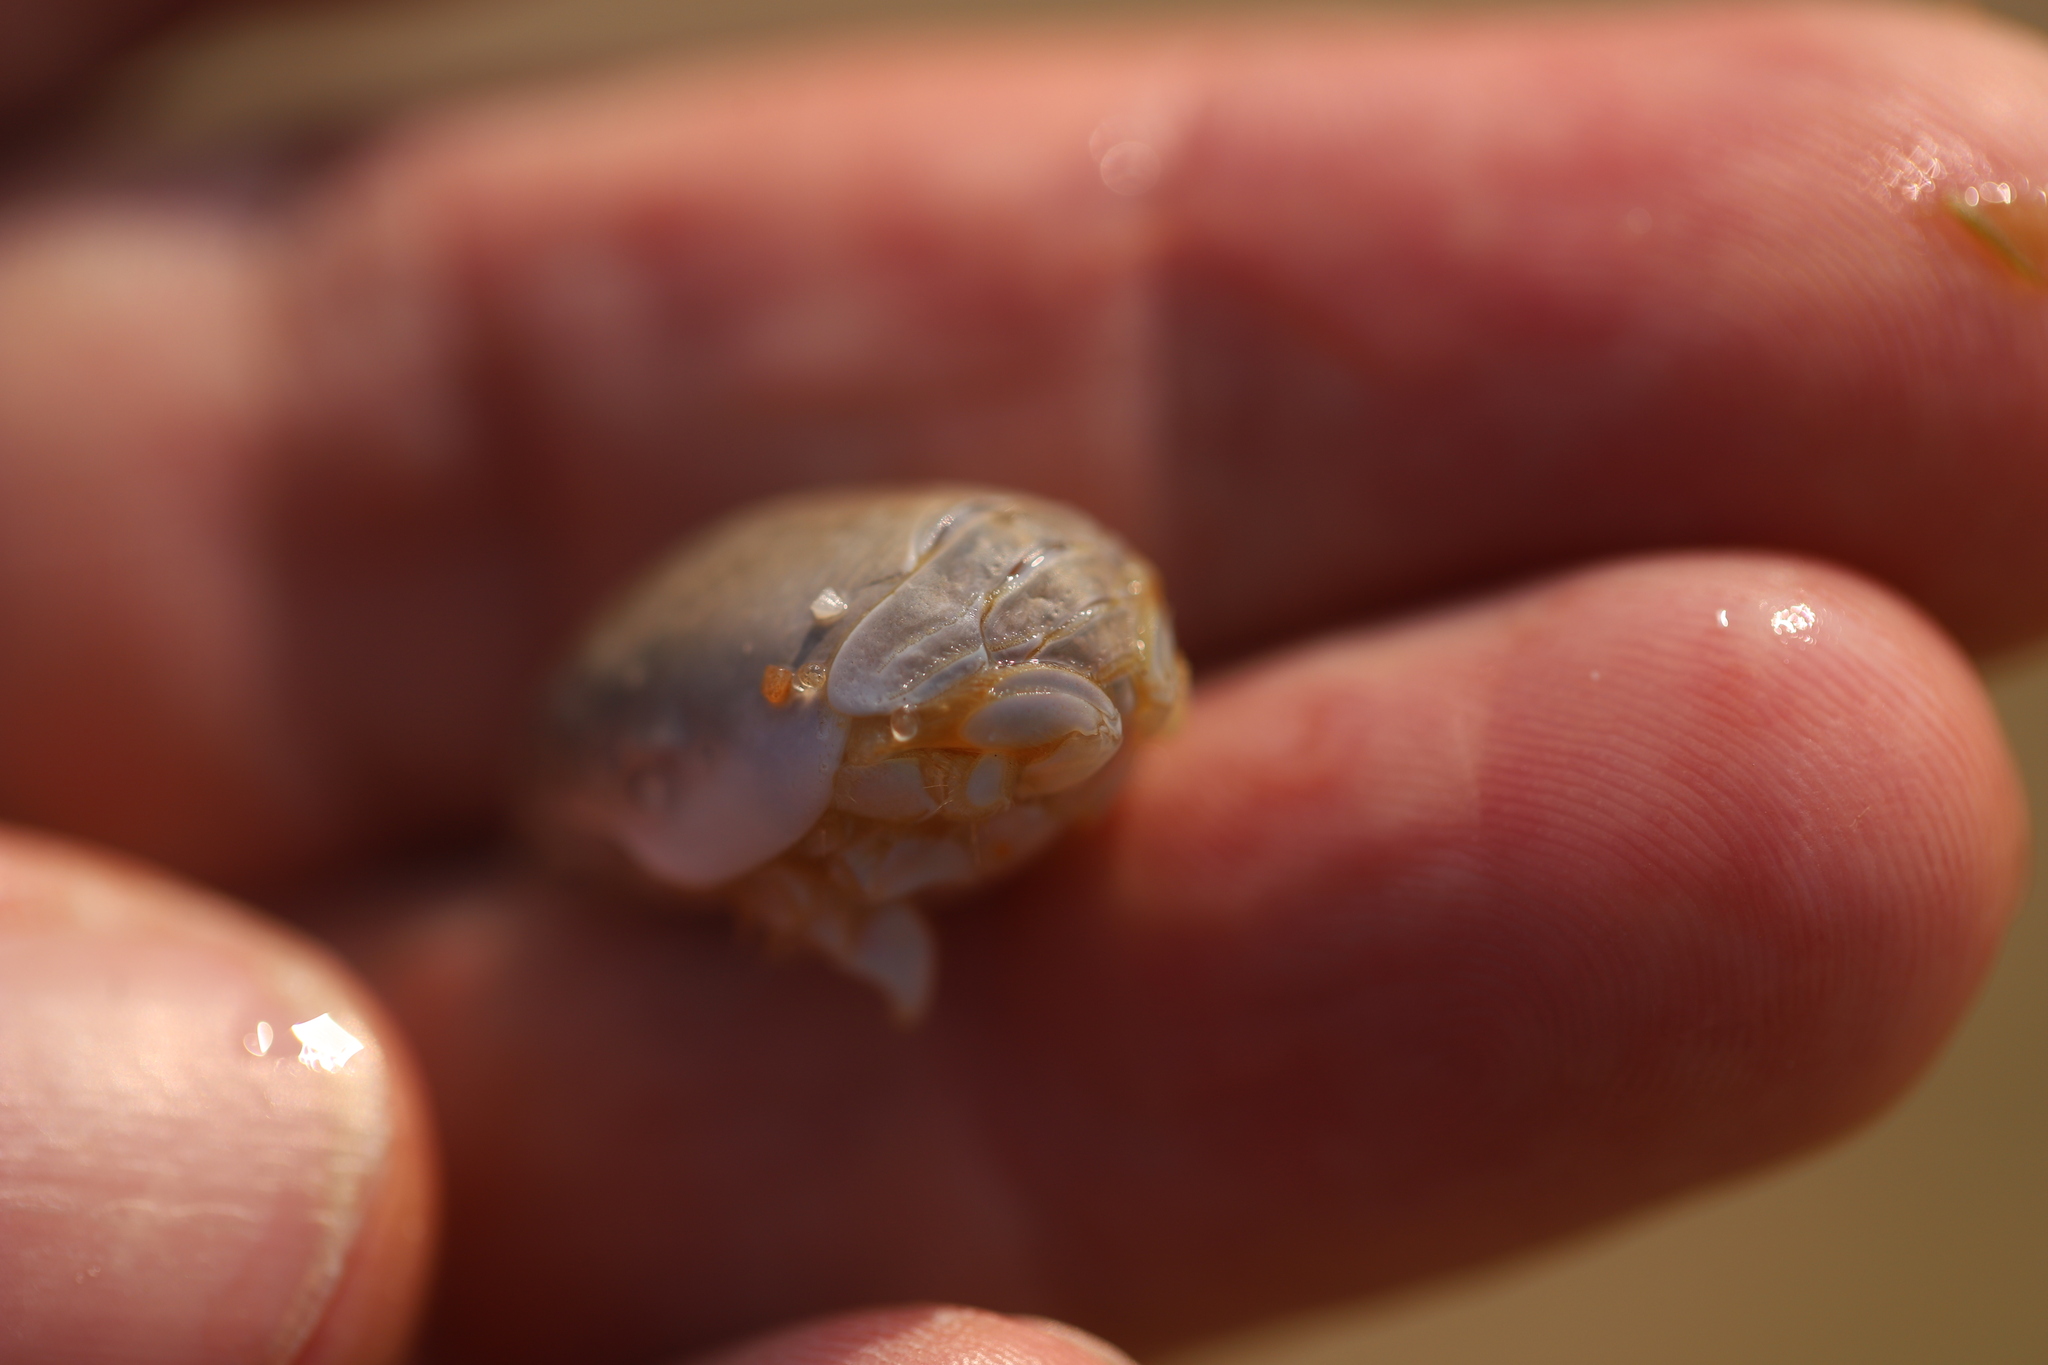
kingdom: Animalia
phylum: Arthropoda
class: Malacostraca
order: Decapoda
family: Hippidae
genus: Emerita
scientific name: Emerita talpoida
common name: Atlantic sand crab
